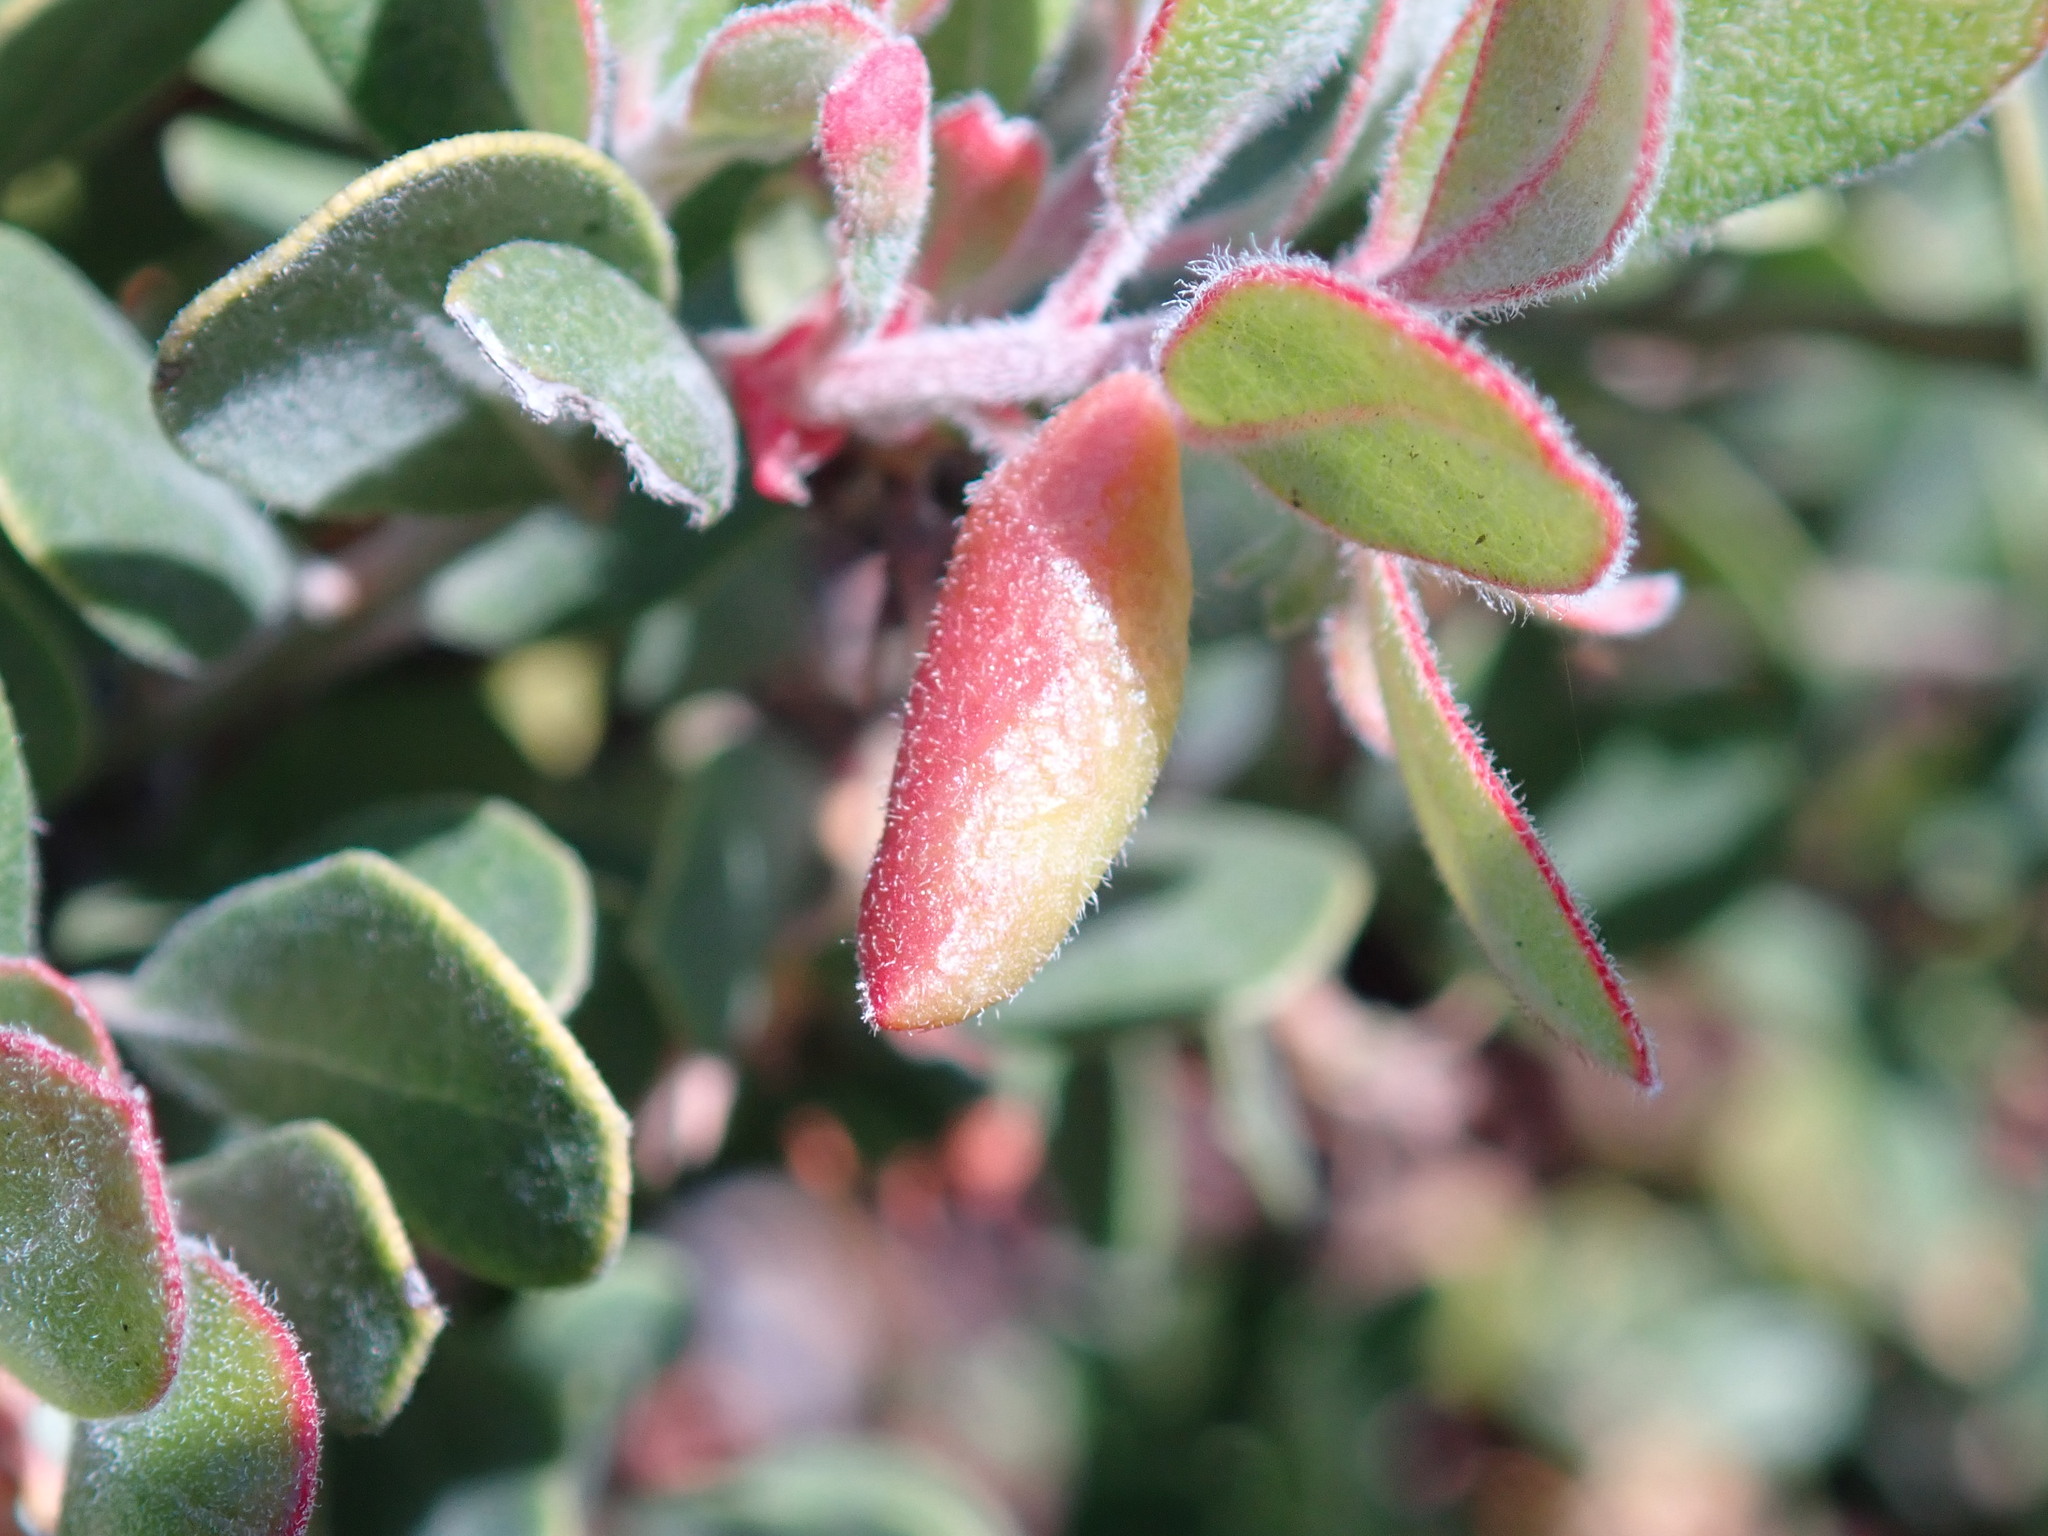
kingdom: Animalia
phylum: Arthropoda
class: Insecta
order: Hemiptera
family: Aphididae
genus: Tamalia
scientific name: Tamalia coweni
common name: Manzanita leafgall aphid
